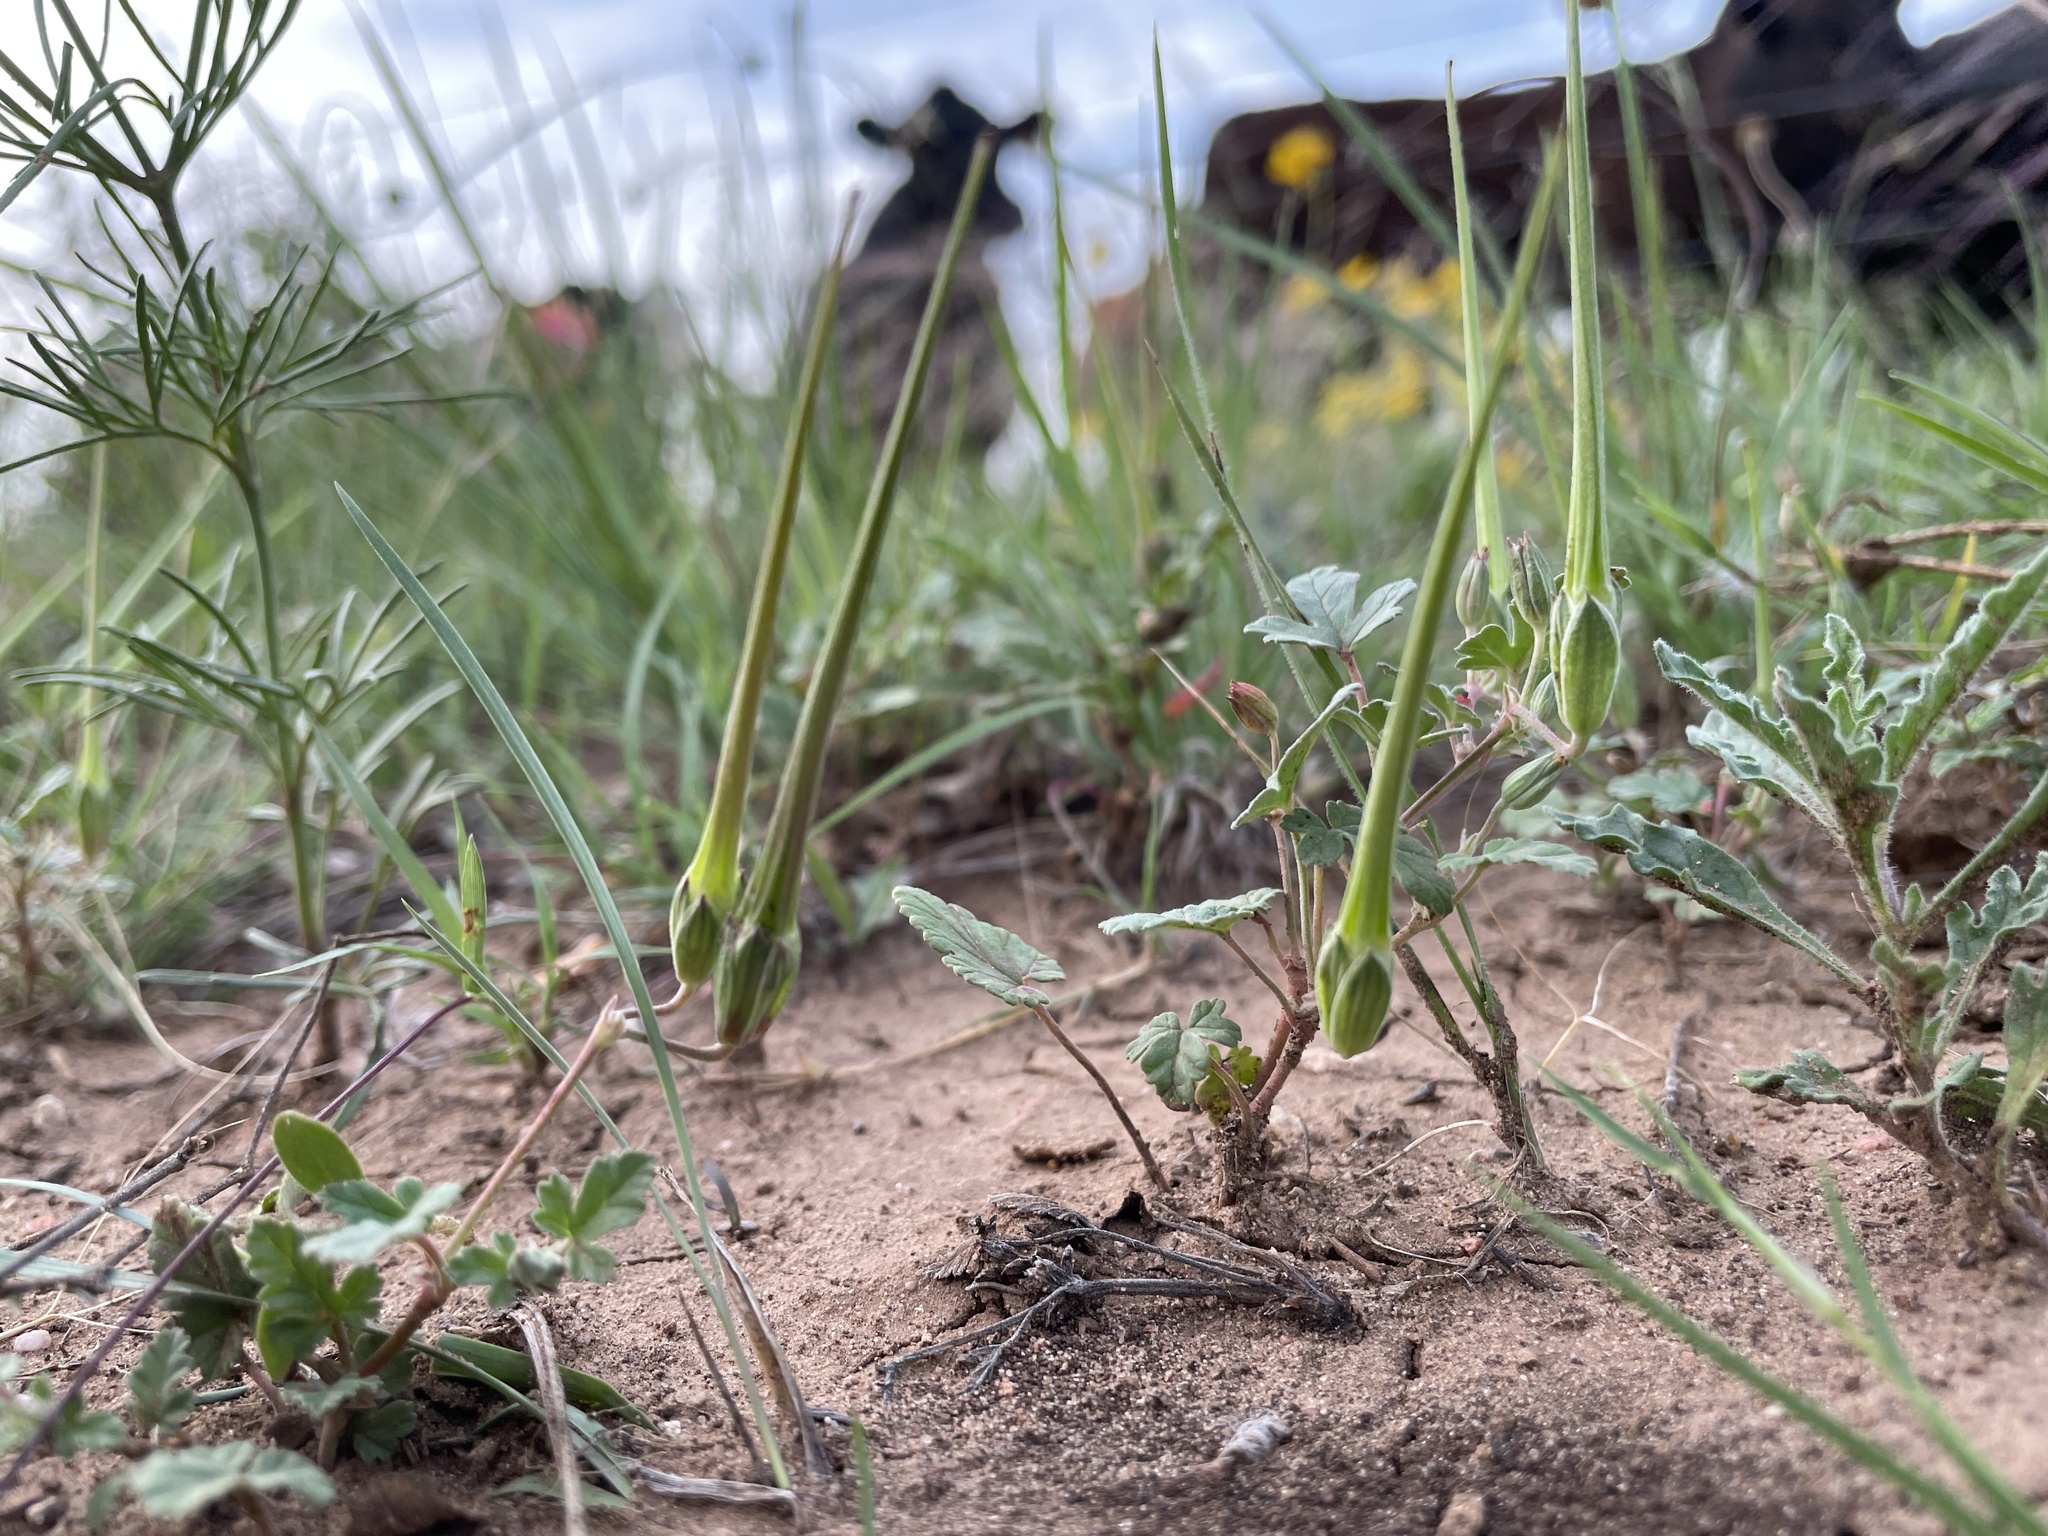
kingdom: Plantae
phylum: Tracheophyta
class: Magnoliopsida
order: Geraniales
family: Geraniaceae
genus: Erodium
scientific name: Erodium texanum
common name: Texas stork's-bill
